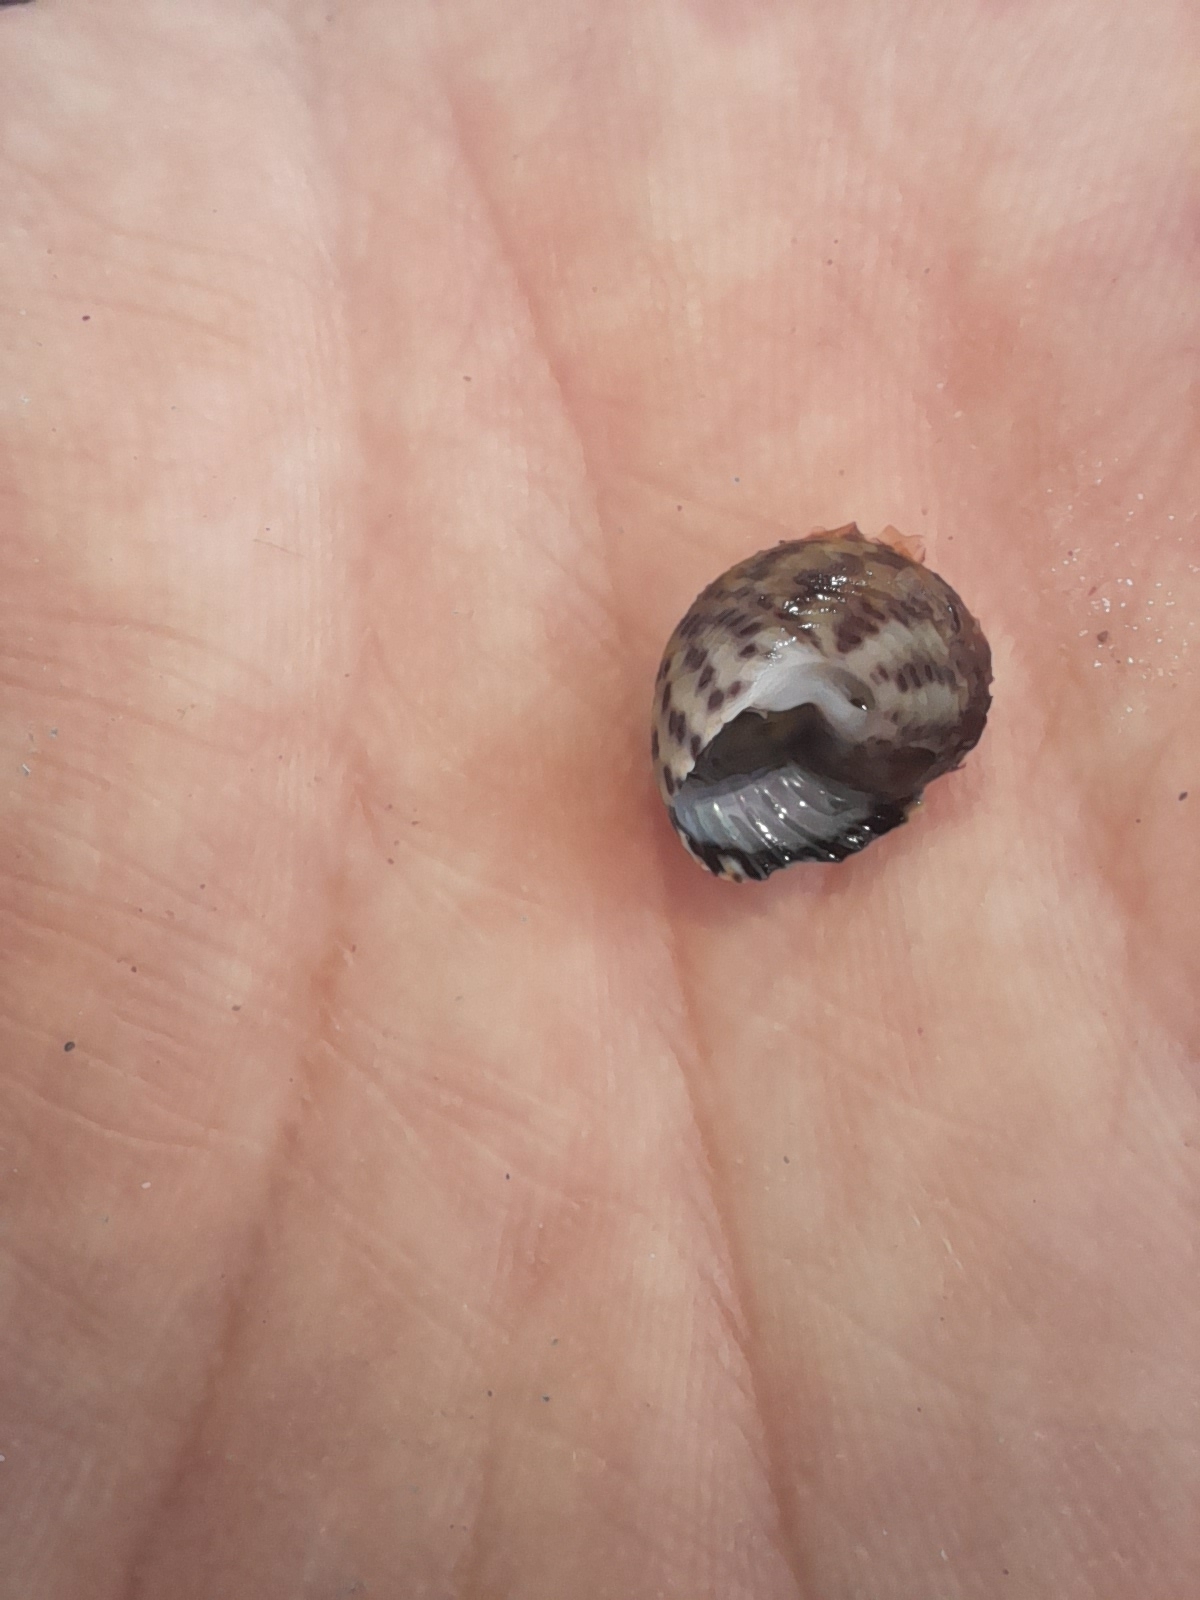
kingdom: Animalia
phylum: Mollusca
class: Gastropoda
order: Trochida
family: Trochidae
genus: Phorcus
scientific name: Phorcus turbinatus
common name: Turbinate monodont
